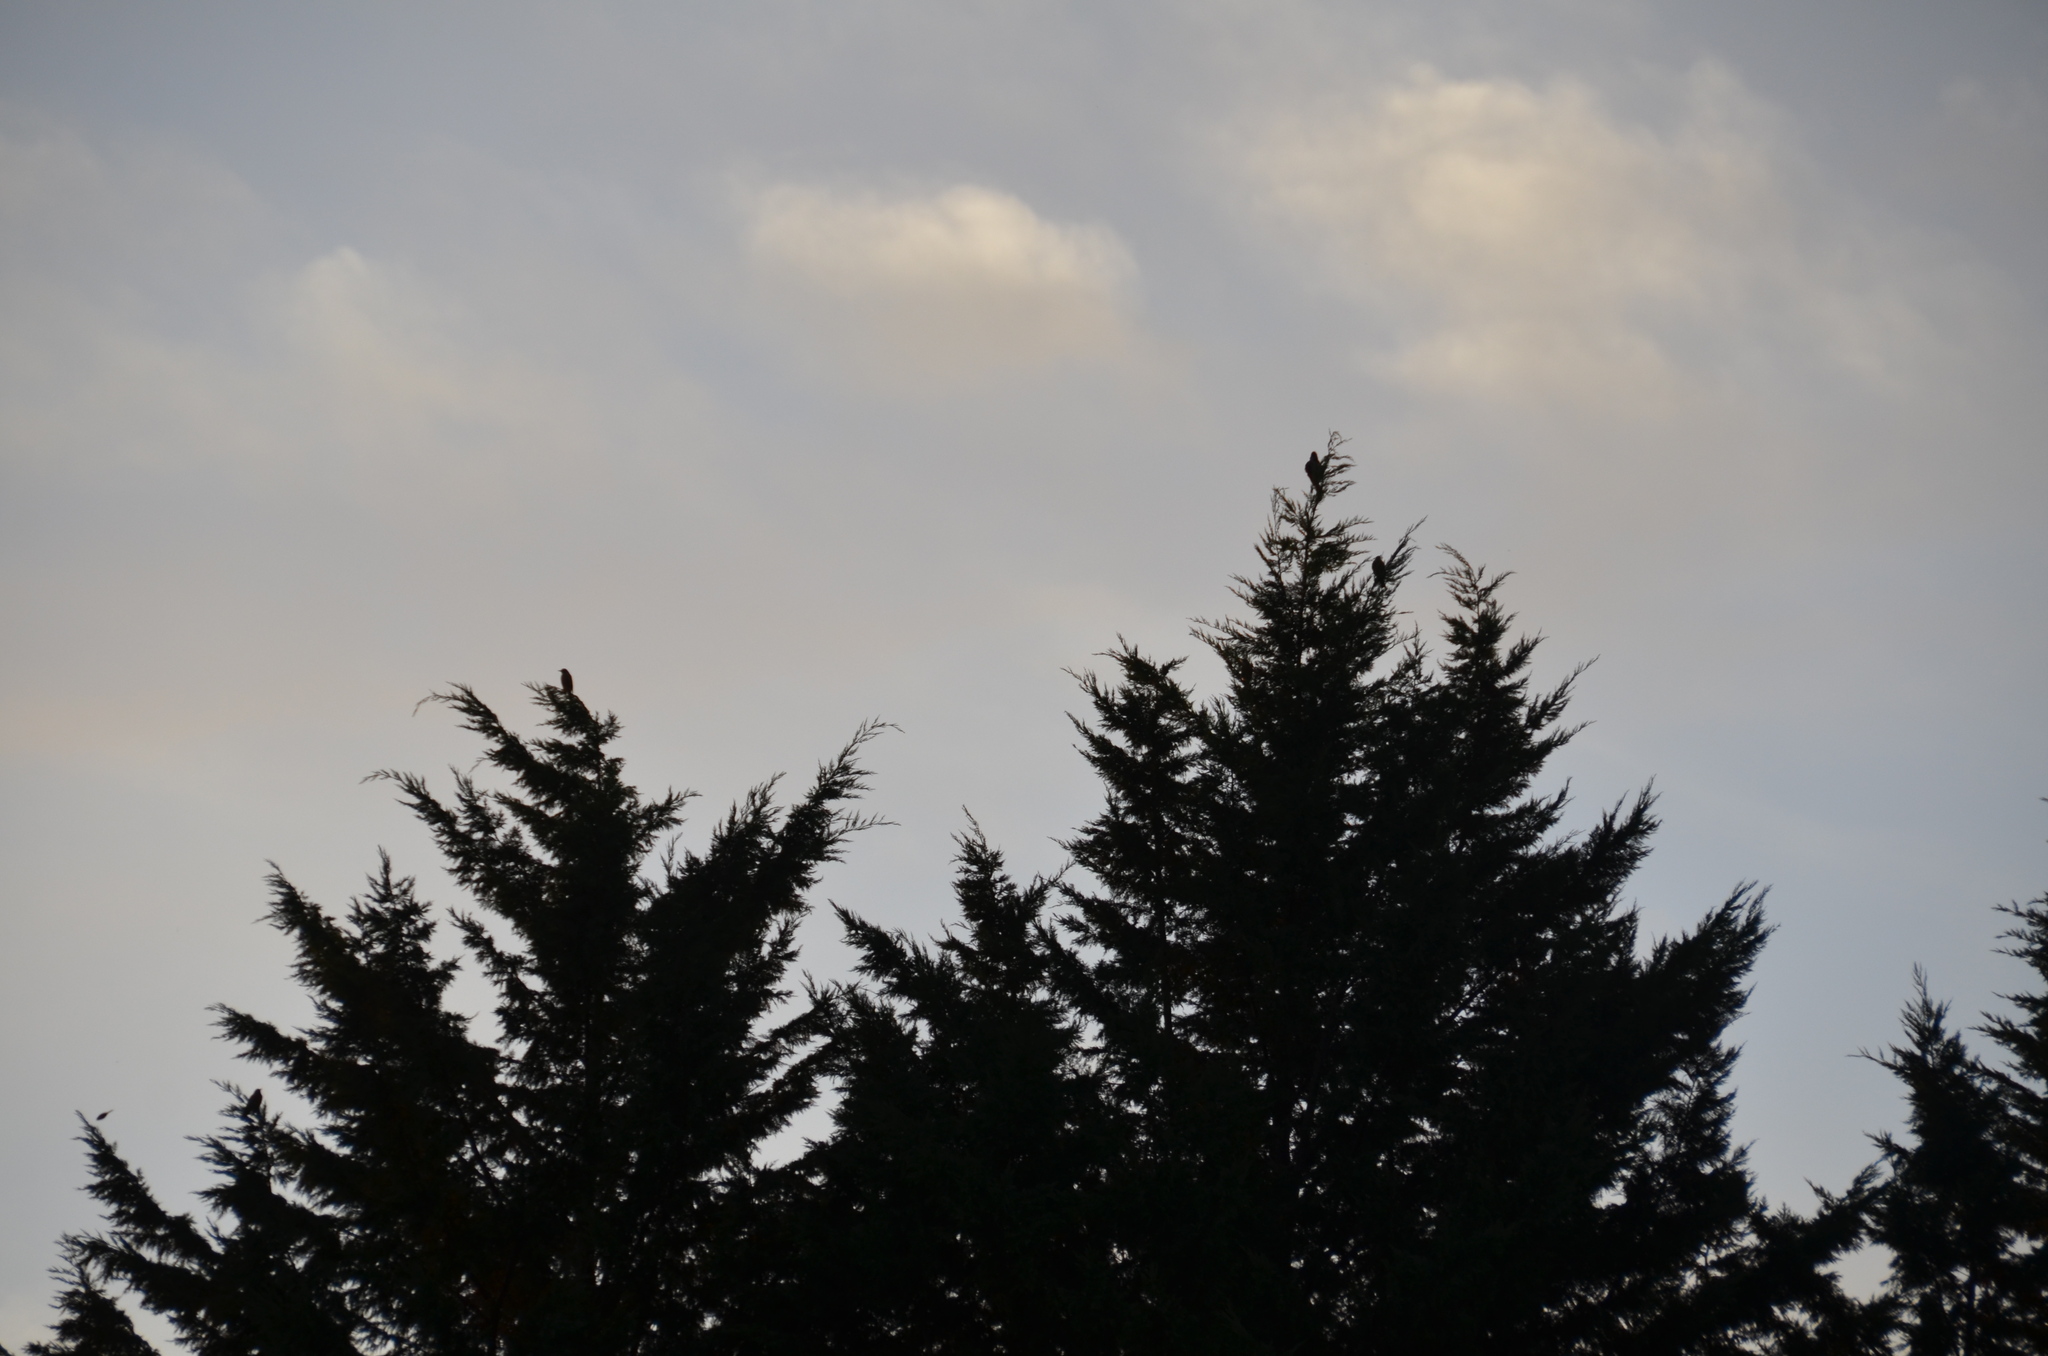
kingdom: Animalia
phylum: Chordata
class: Aves
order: Piciformes
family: Picidae
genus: Colaptes
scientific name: Colaptes auratus
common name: Northern flicker
